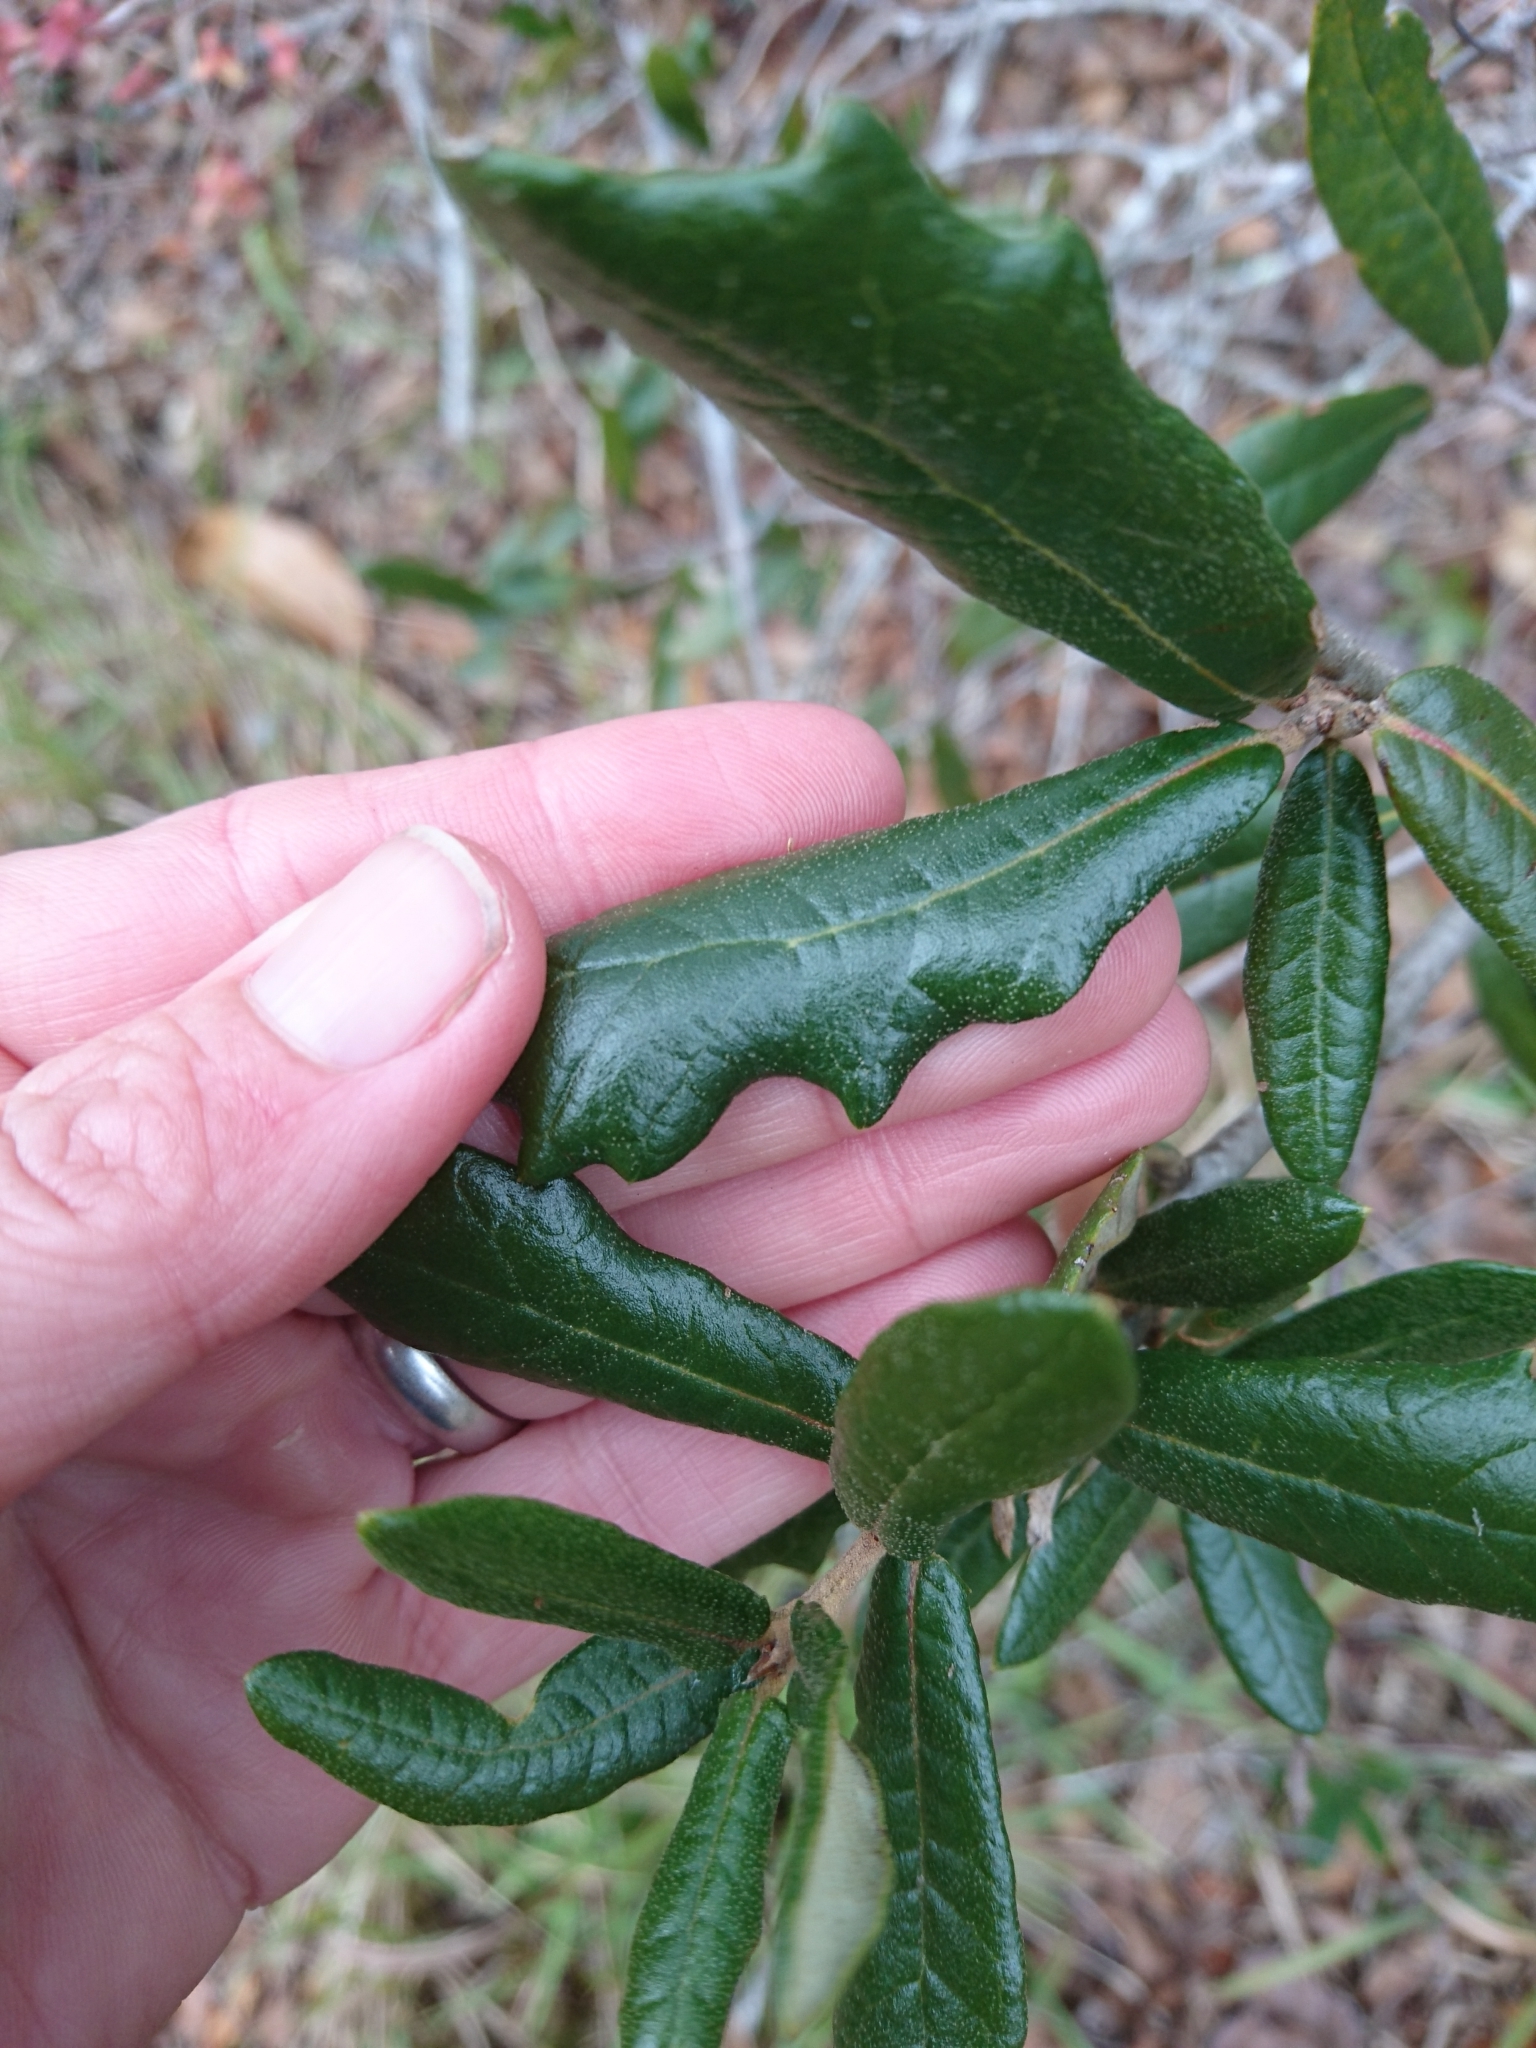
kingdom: Plantae
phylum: Tracheophyta
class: Magnoliopsida
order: Fagales
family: Fagaceae
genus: Quercus
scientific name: Quercus geminata
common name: Sand live oak
